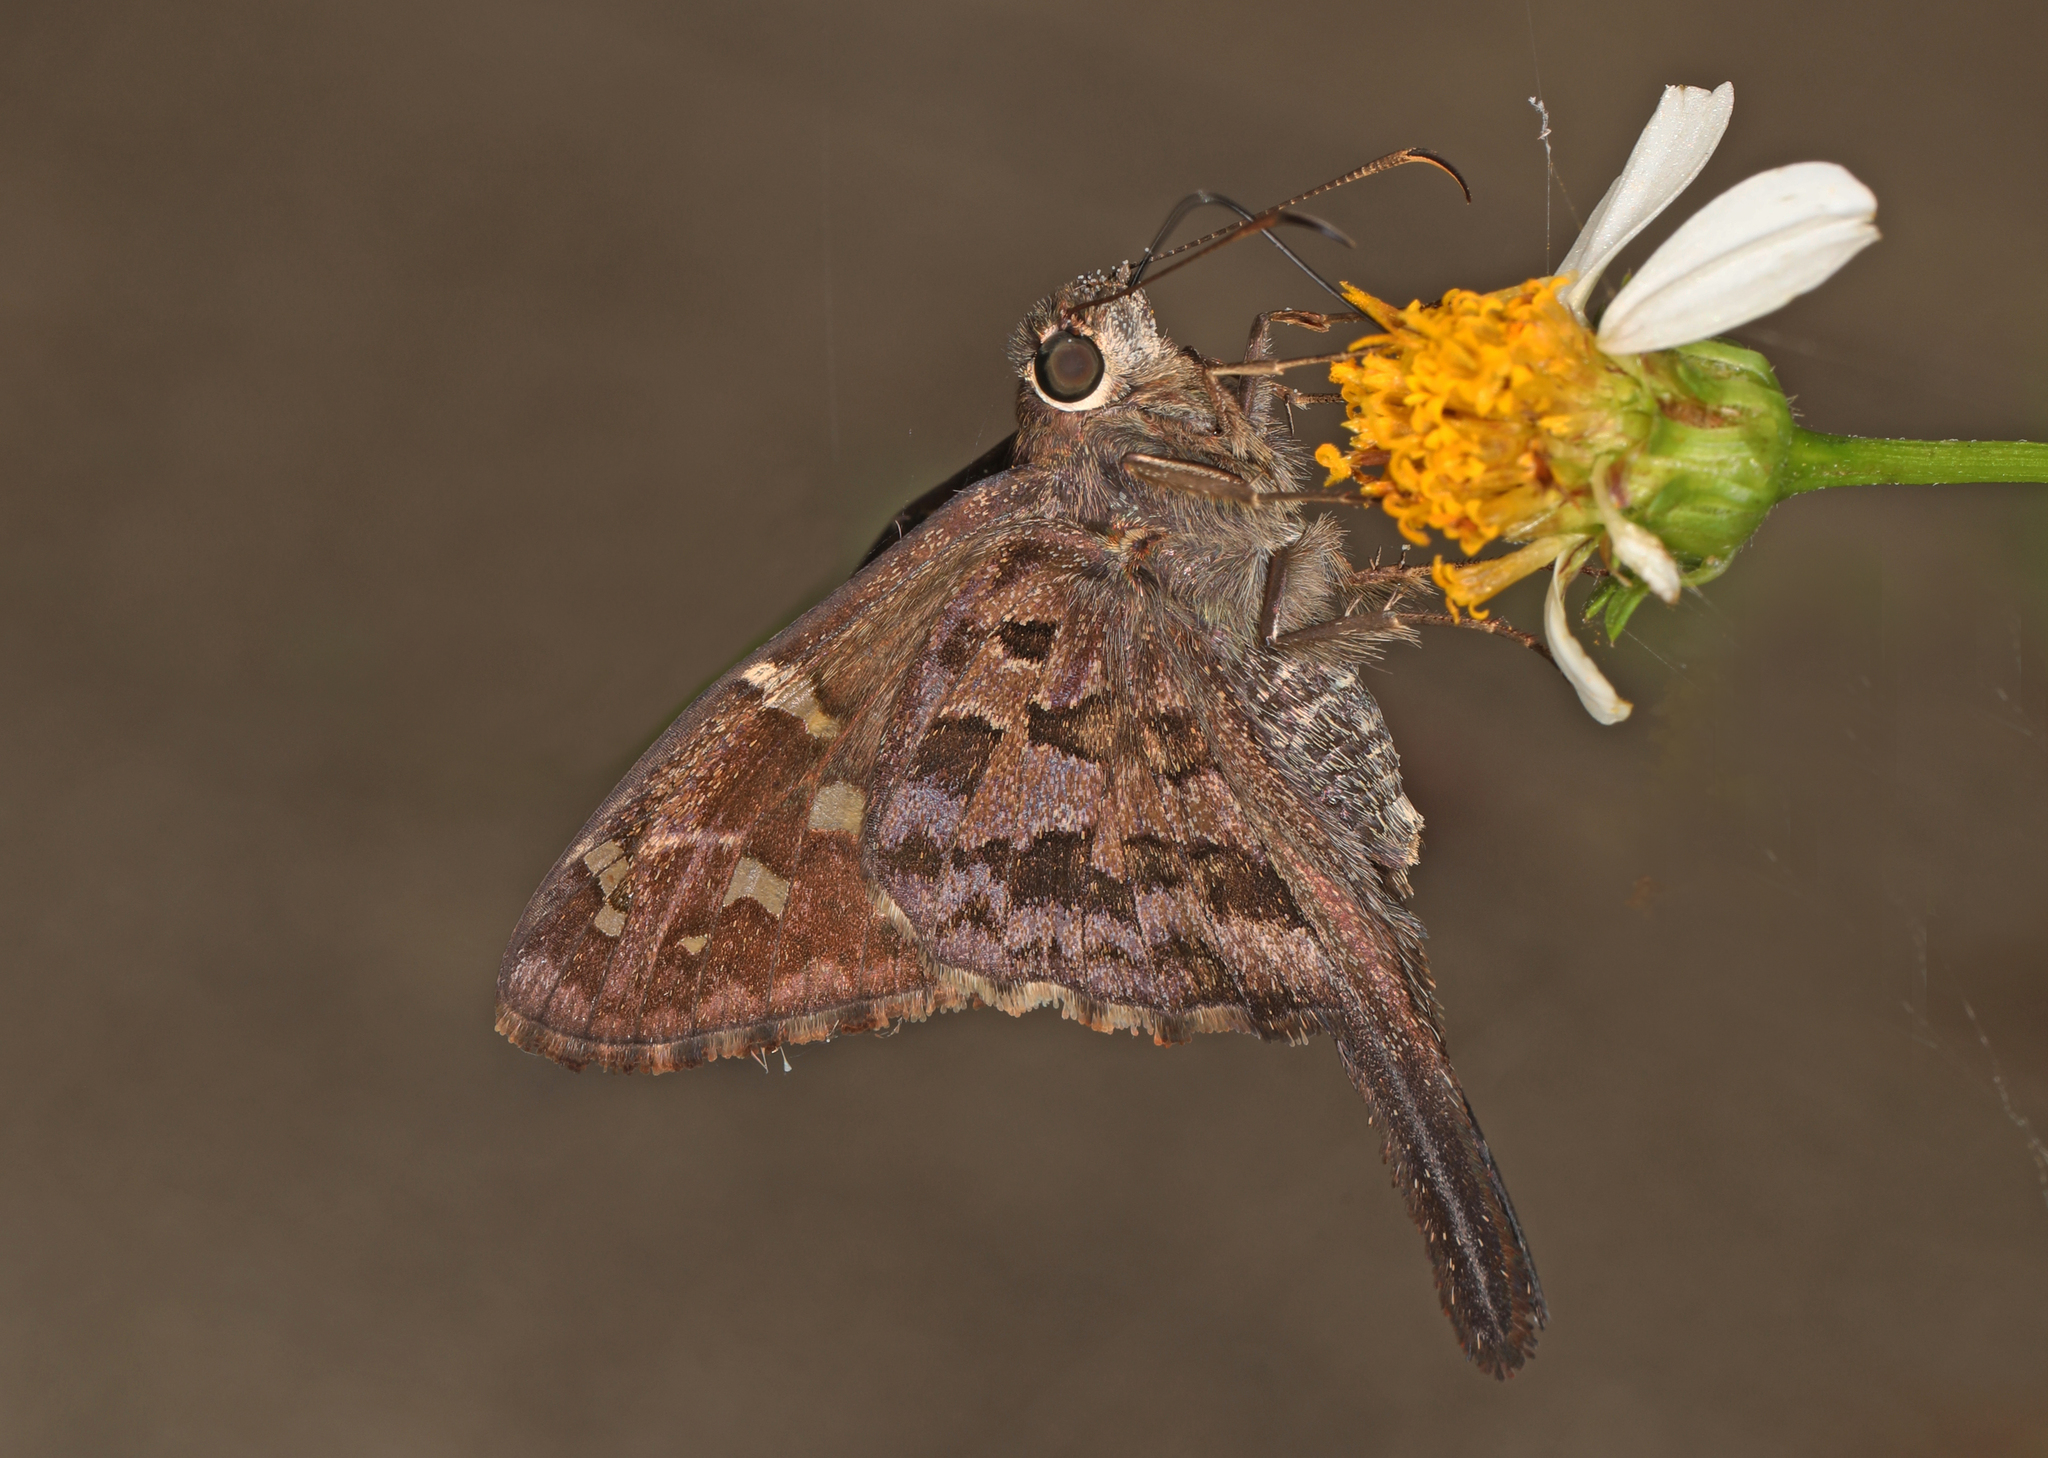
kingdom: Animalia
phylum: Arthropoda
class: Insecta
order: Lepidoptera
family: Hesperiidae
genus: Thorybes
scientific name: Thorybes
